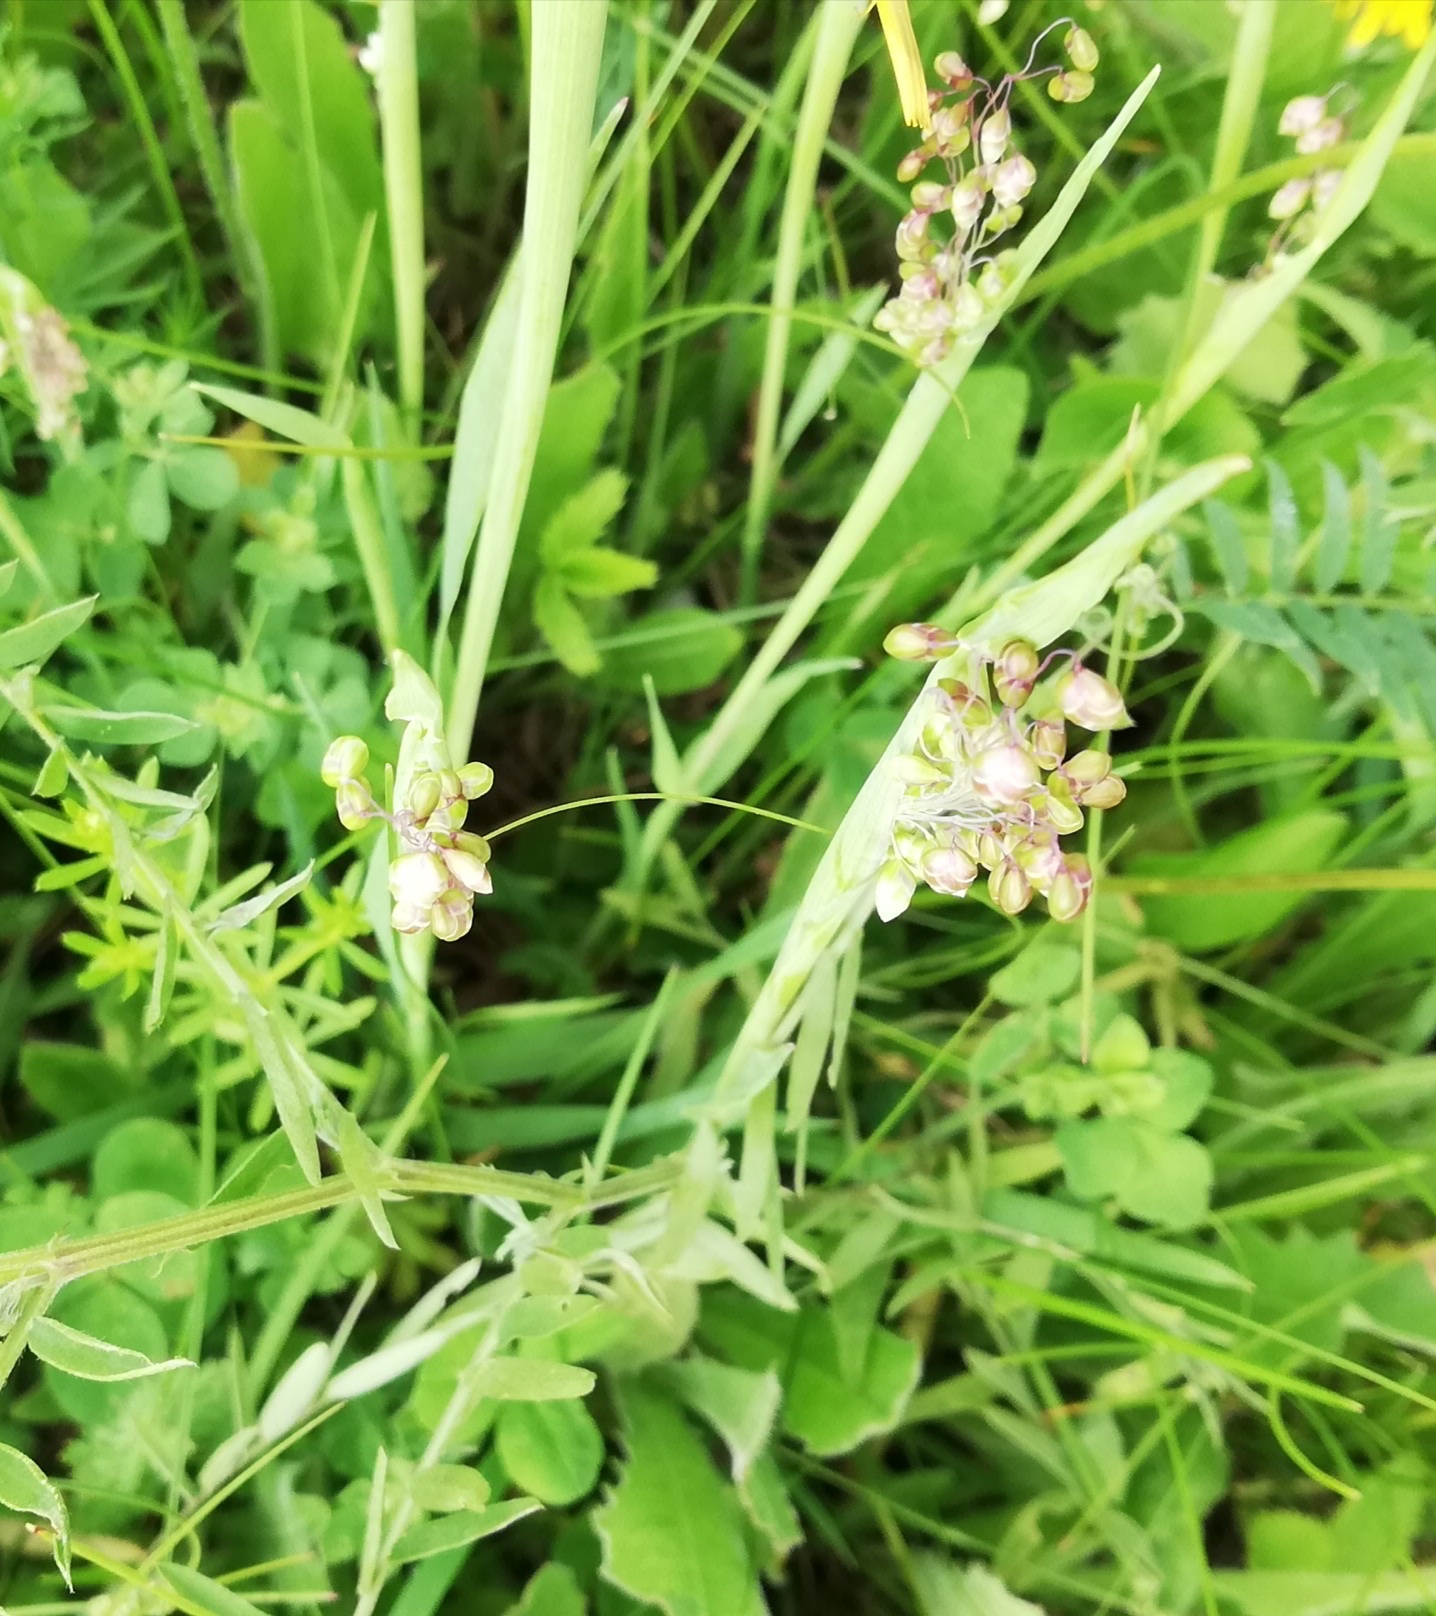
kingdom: Plantae
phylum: Tracheophyta
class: Liliopsida
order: Poales
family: Poaceae
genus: Briza
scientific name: Briza media
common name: Quaking grass
